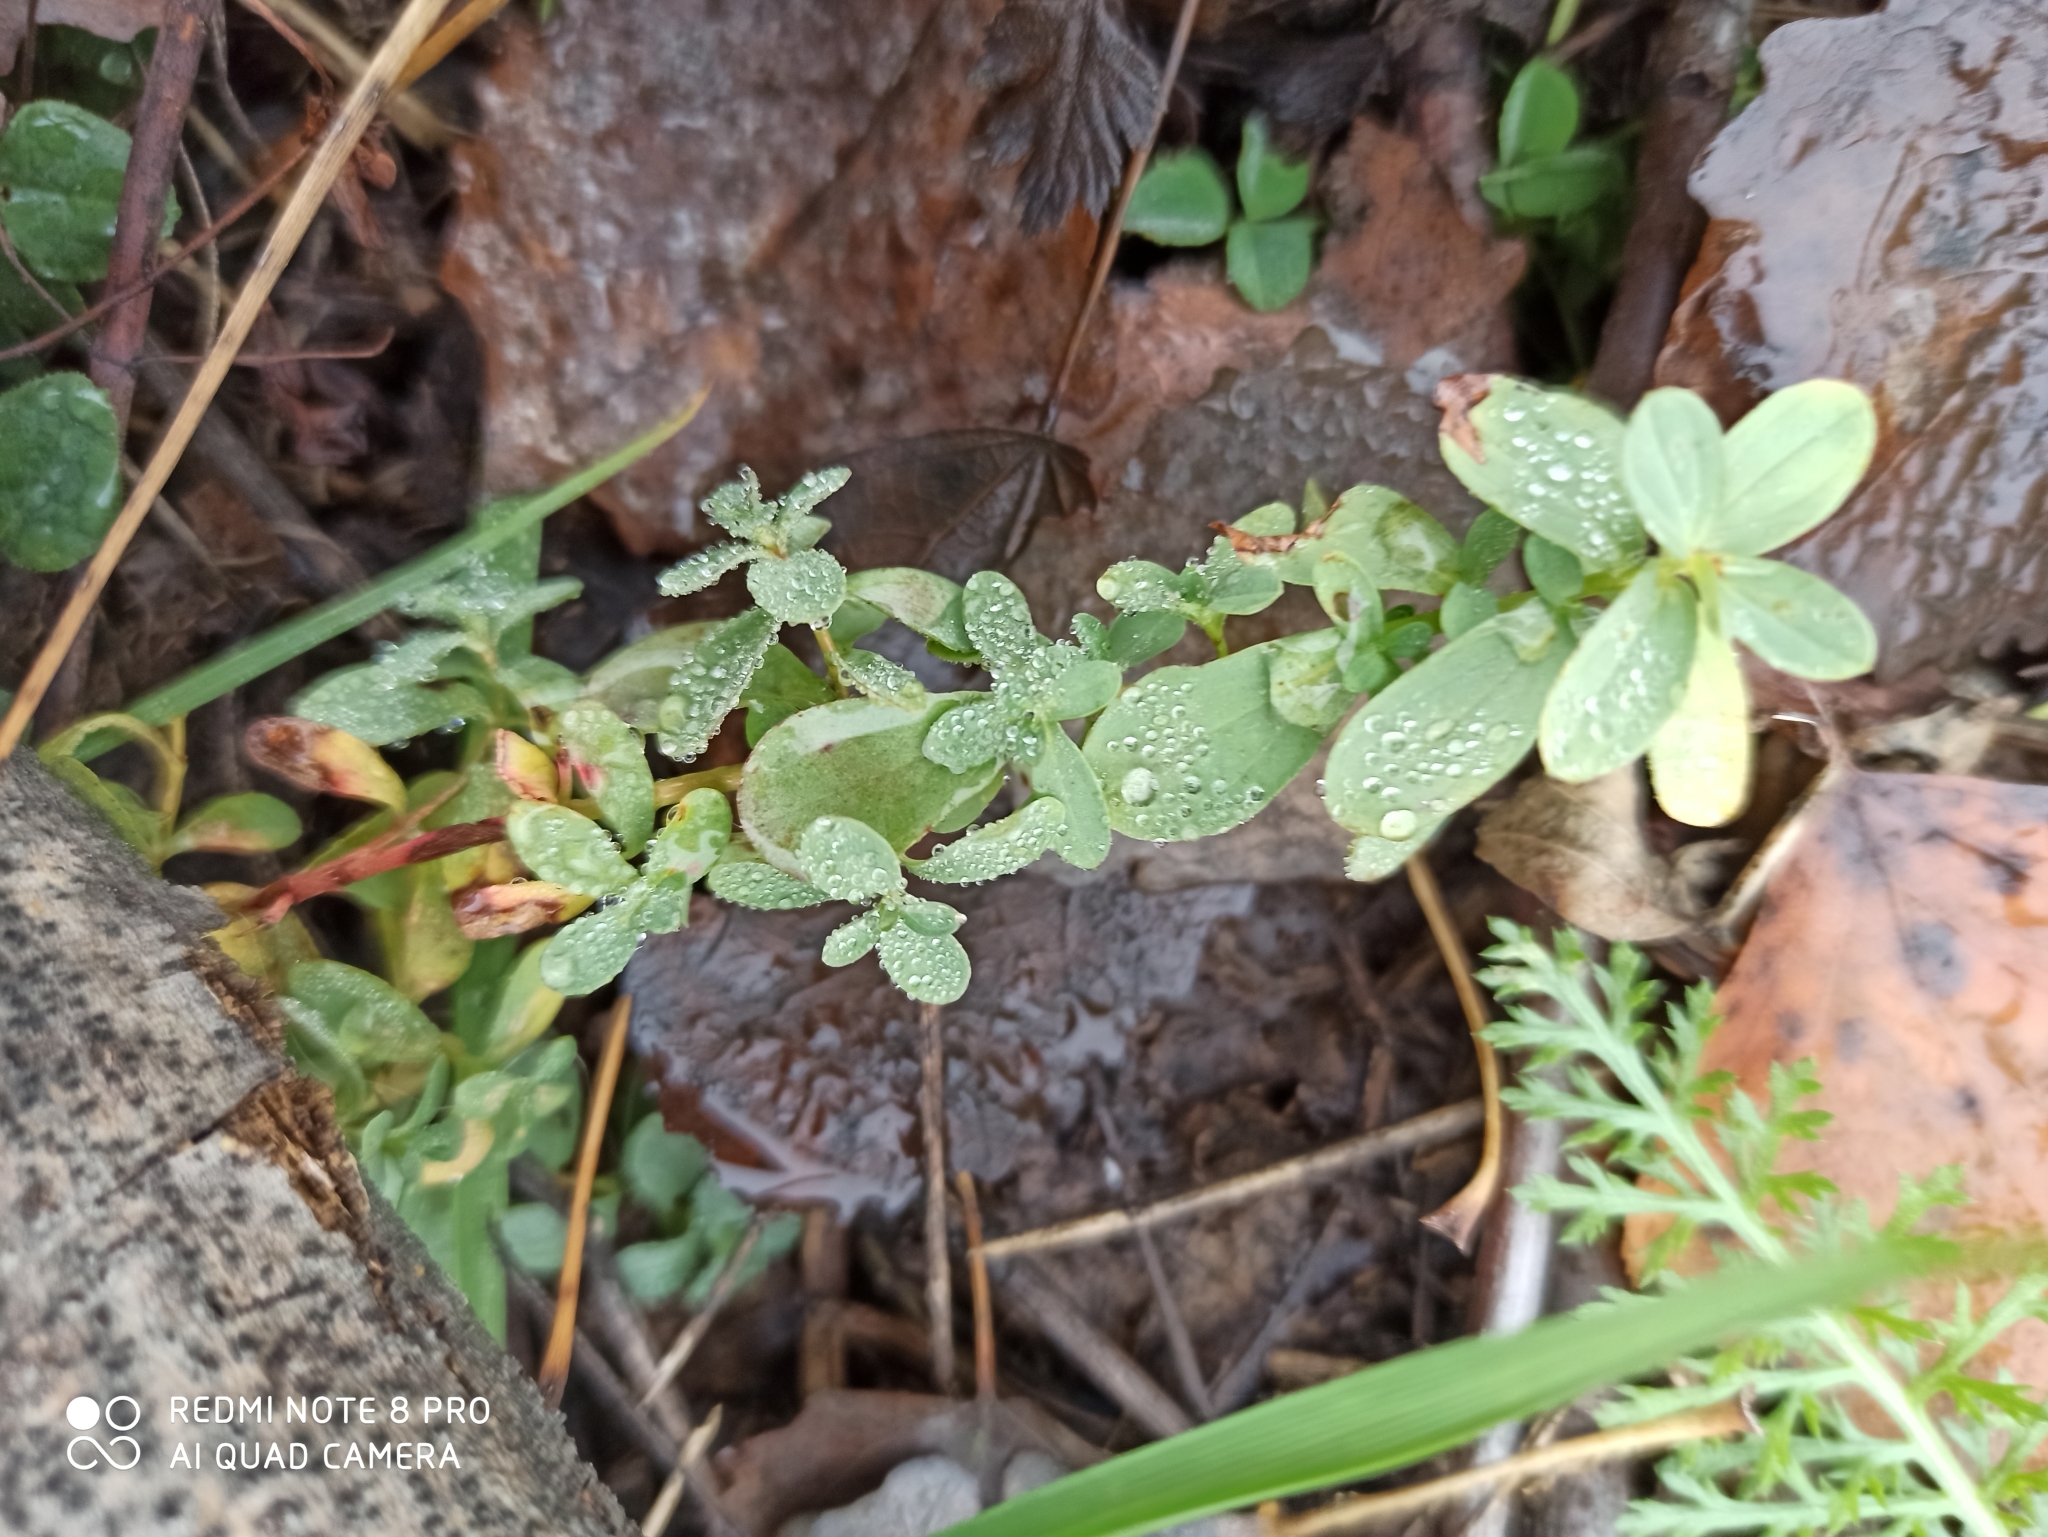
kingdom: Plantae
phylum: Tracheophyta
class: Magnoliopsida
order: Malpighiales
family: Hypericaceae
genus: Hypericum
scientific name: Hypericum perforatum
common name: Common st. johnswort
